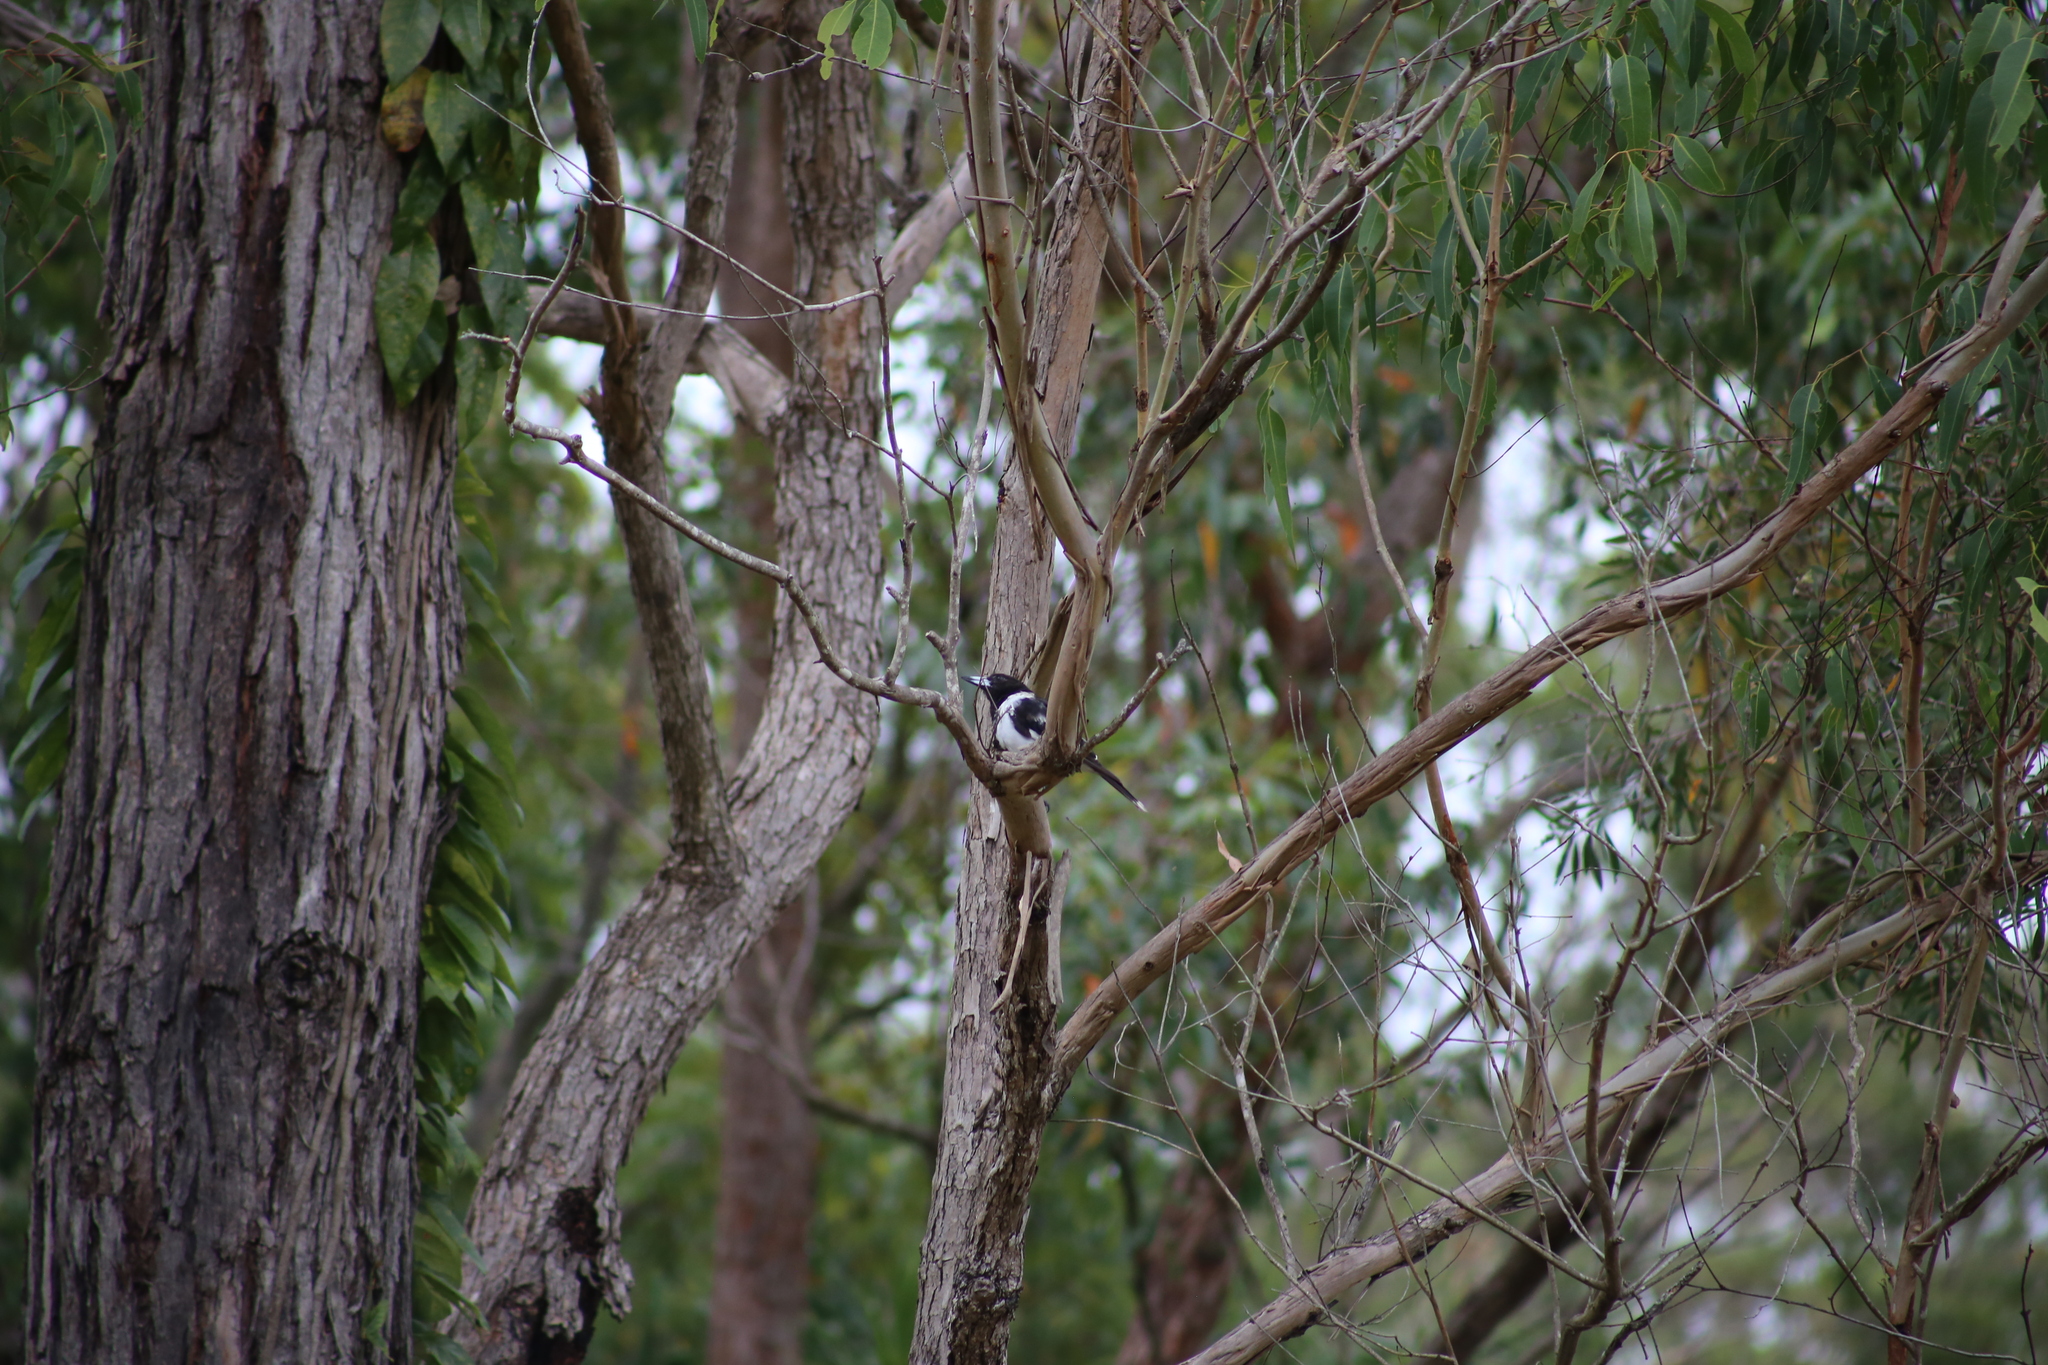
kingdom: Animalia
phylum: Chordata
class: Aves
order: Passeriformes
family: Cracticidae
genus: Cracticus
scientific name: Cracticus nigrogularis
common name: Pied butcherbird
